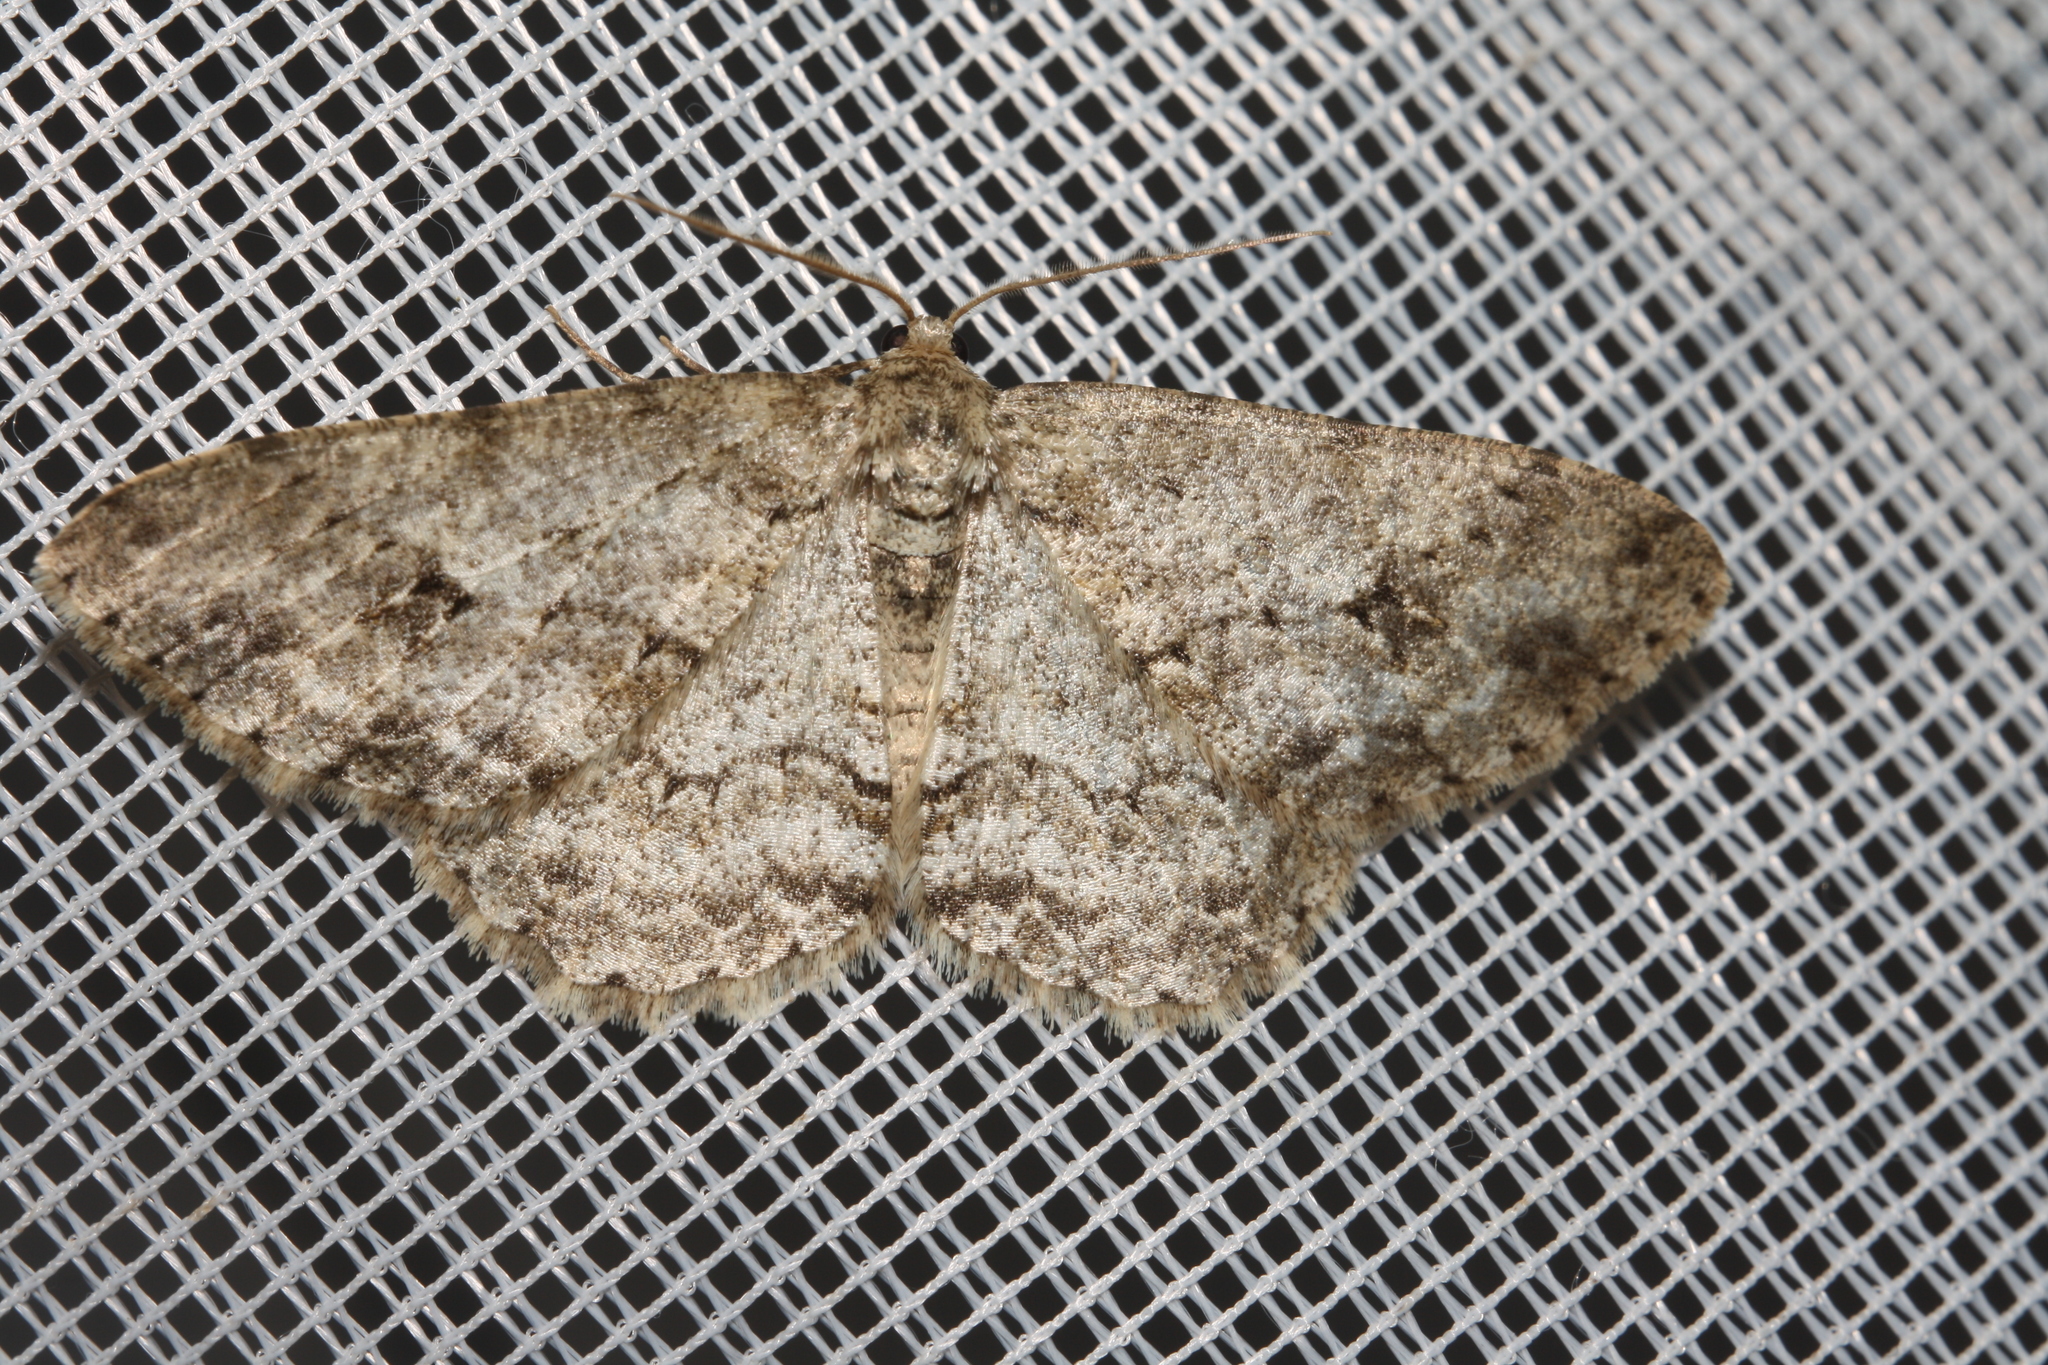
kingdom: Animalia
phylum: Arthropoda
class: Insecta
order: Lepidoptera
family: Geometridae
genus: Ectropis
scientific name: Ectropis crepuscularia
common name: Engrailed
